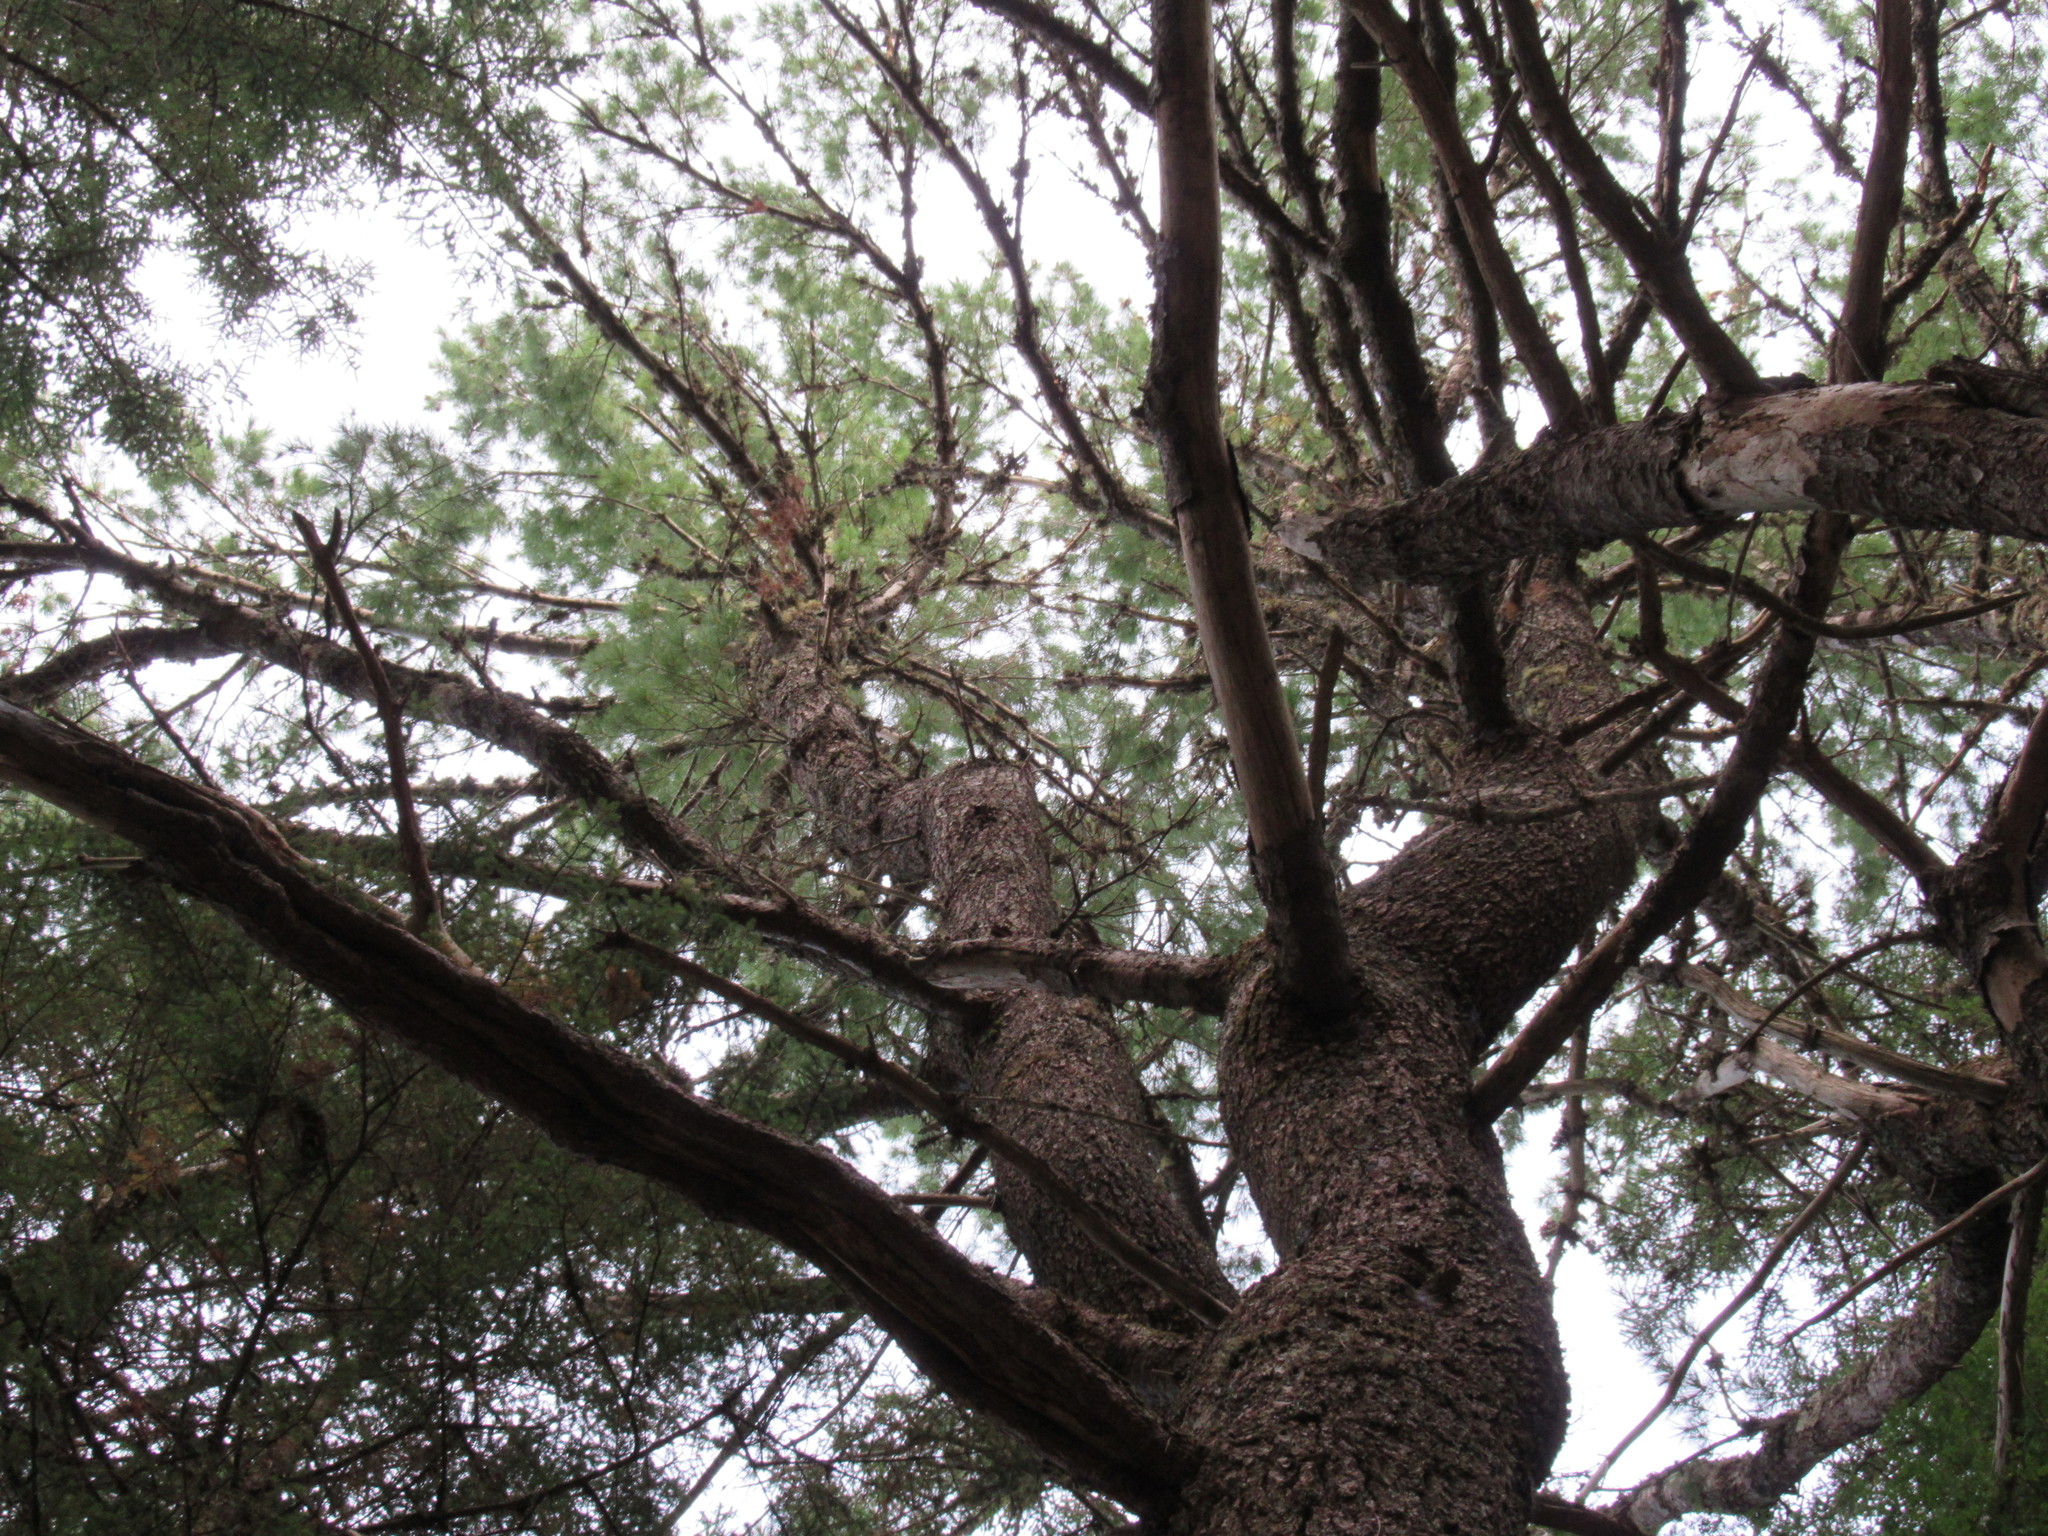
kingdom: Plantae
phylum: Tracheophyta
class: Pinopsida
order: Pinales
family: Pinaceae
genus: Pinus
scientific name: Pinus strobus
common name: Weymouth pine
